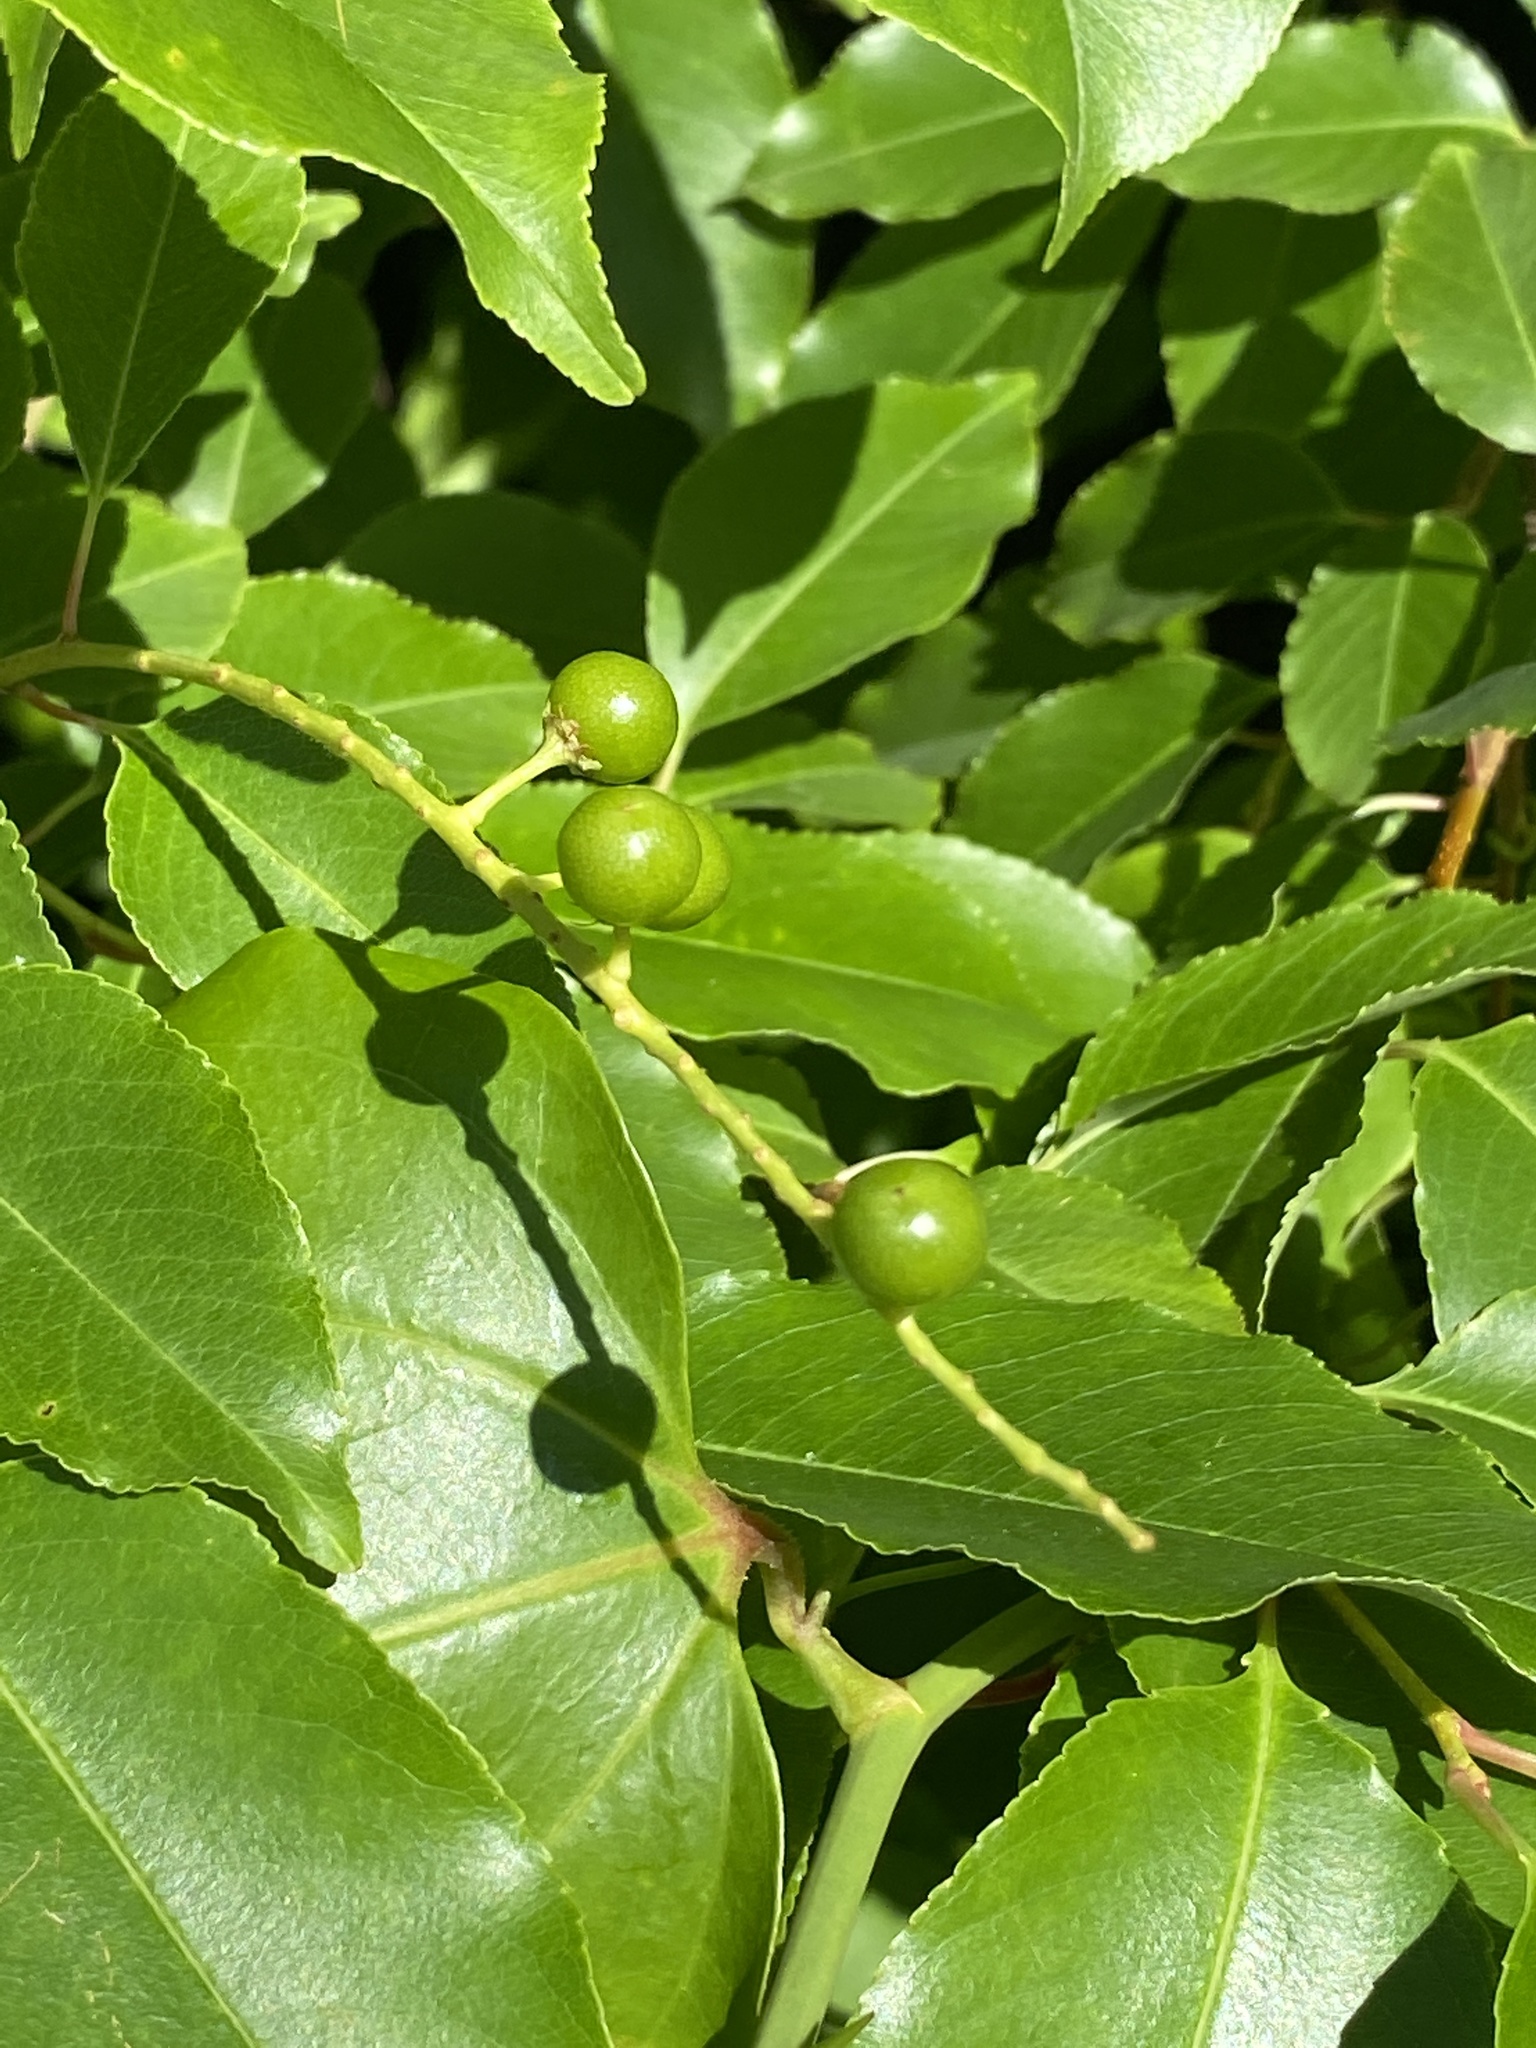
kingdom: Plantae
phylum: Tracheophyta
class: Magnoliopsida
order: Rosales
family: Rosaceae
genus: Prunus
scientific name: Prunus serotina
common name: Black cherry
